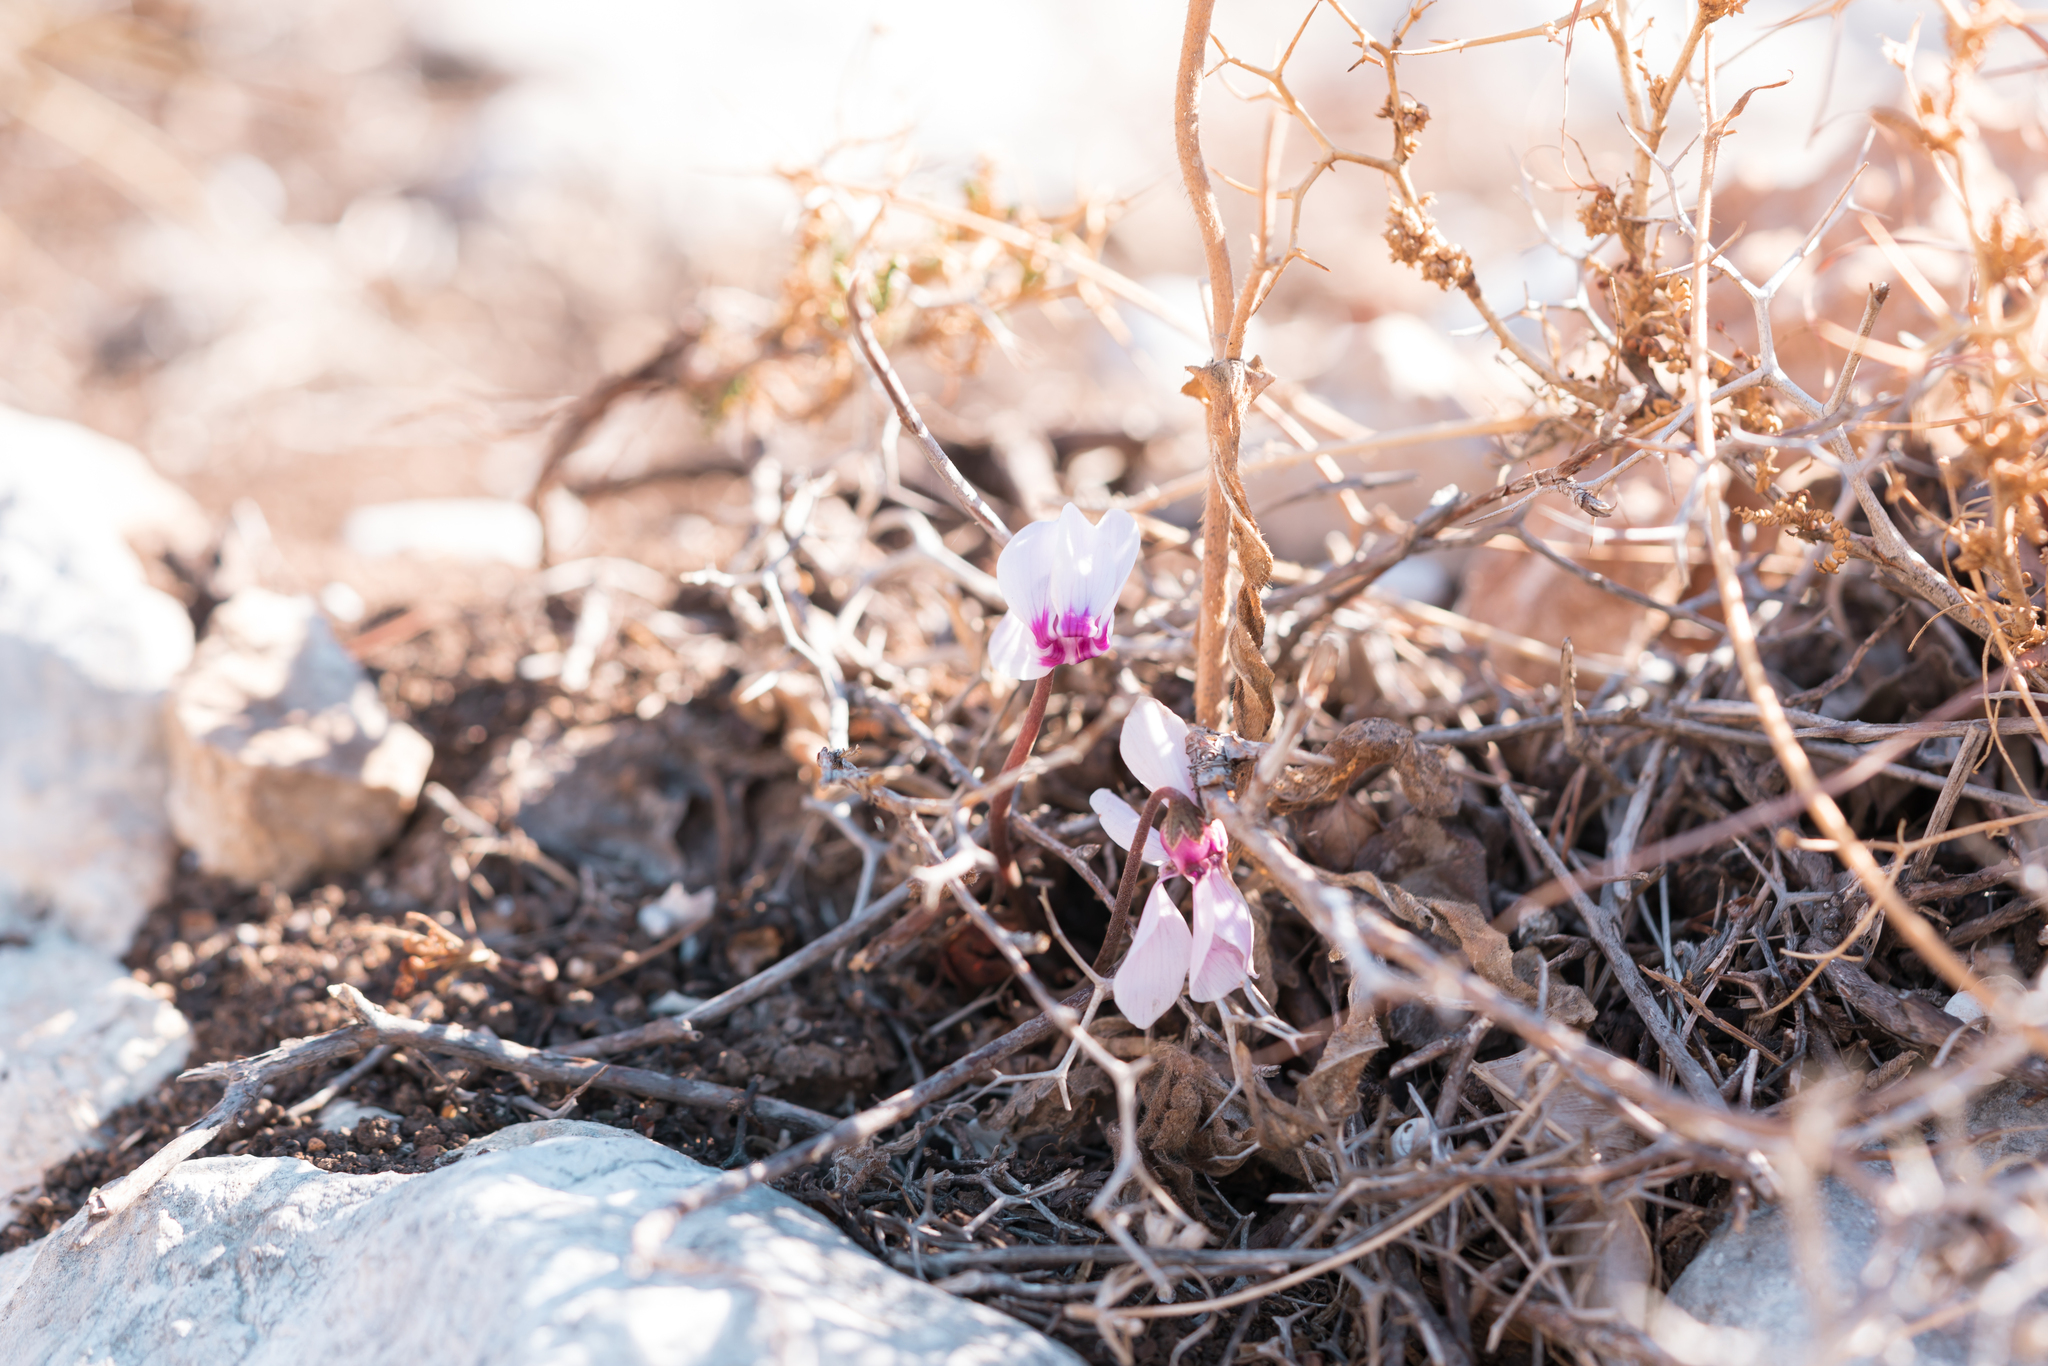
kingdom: Plantae
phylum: Tracheophyta
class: Magnoliopsida
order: Ericales
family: Primulaceae
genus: Cyclamen
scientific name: Cyclamen graecum
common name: Greek cyclamen
